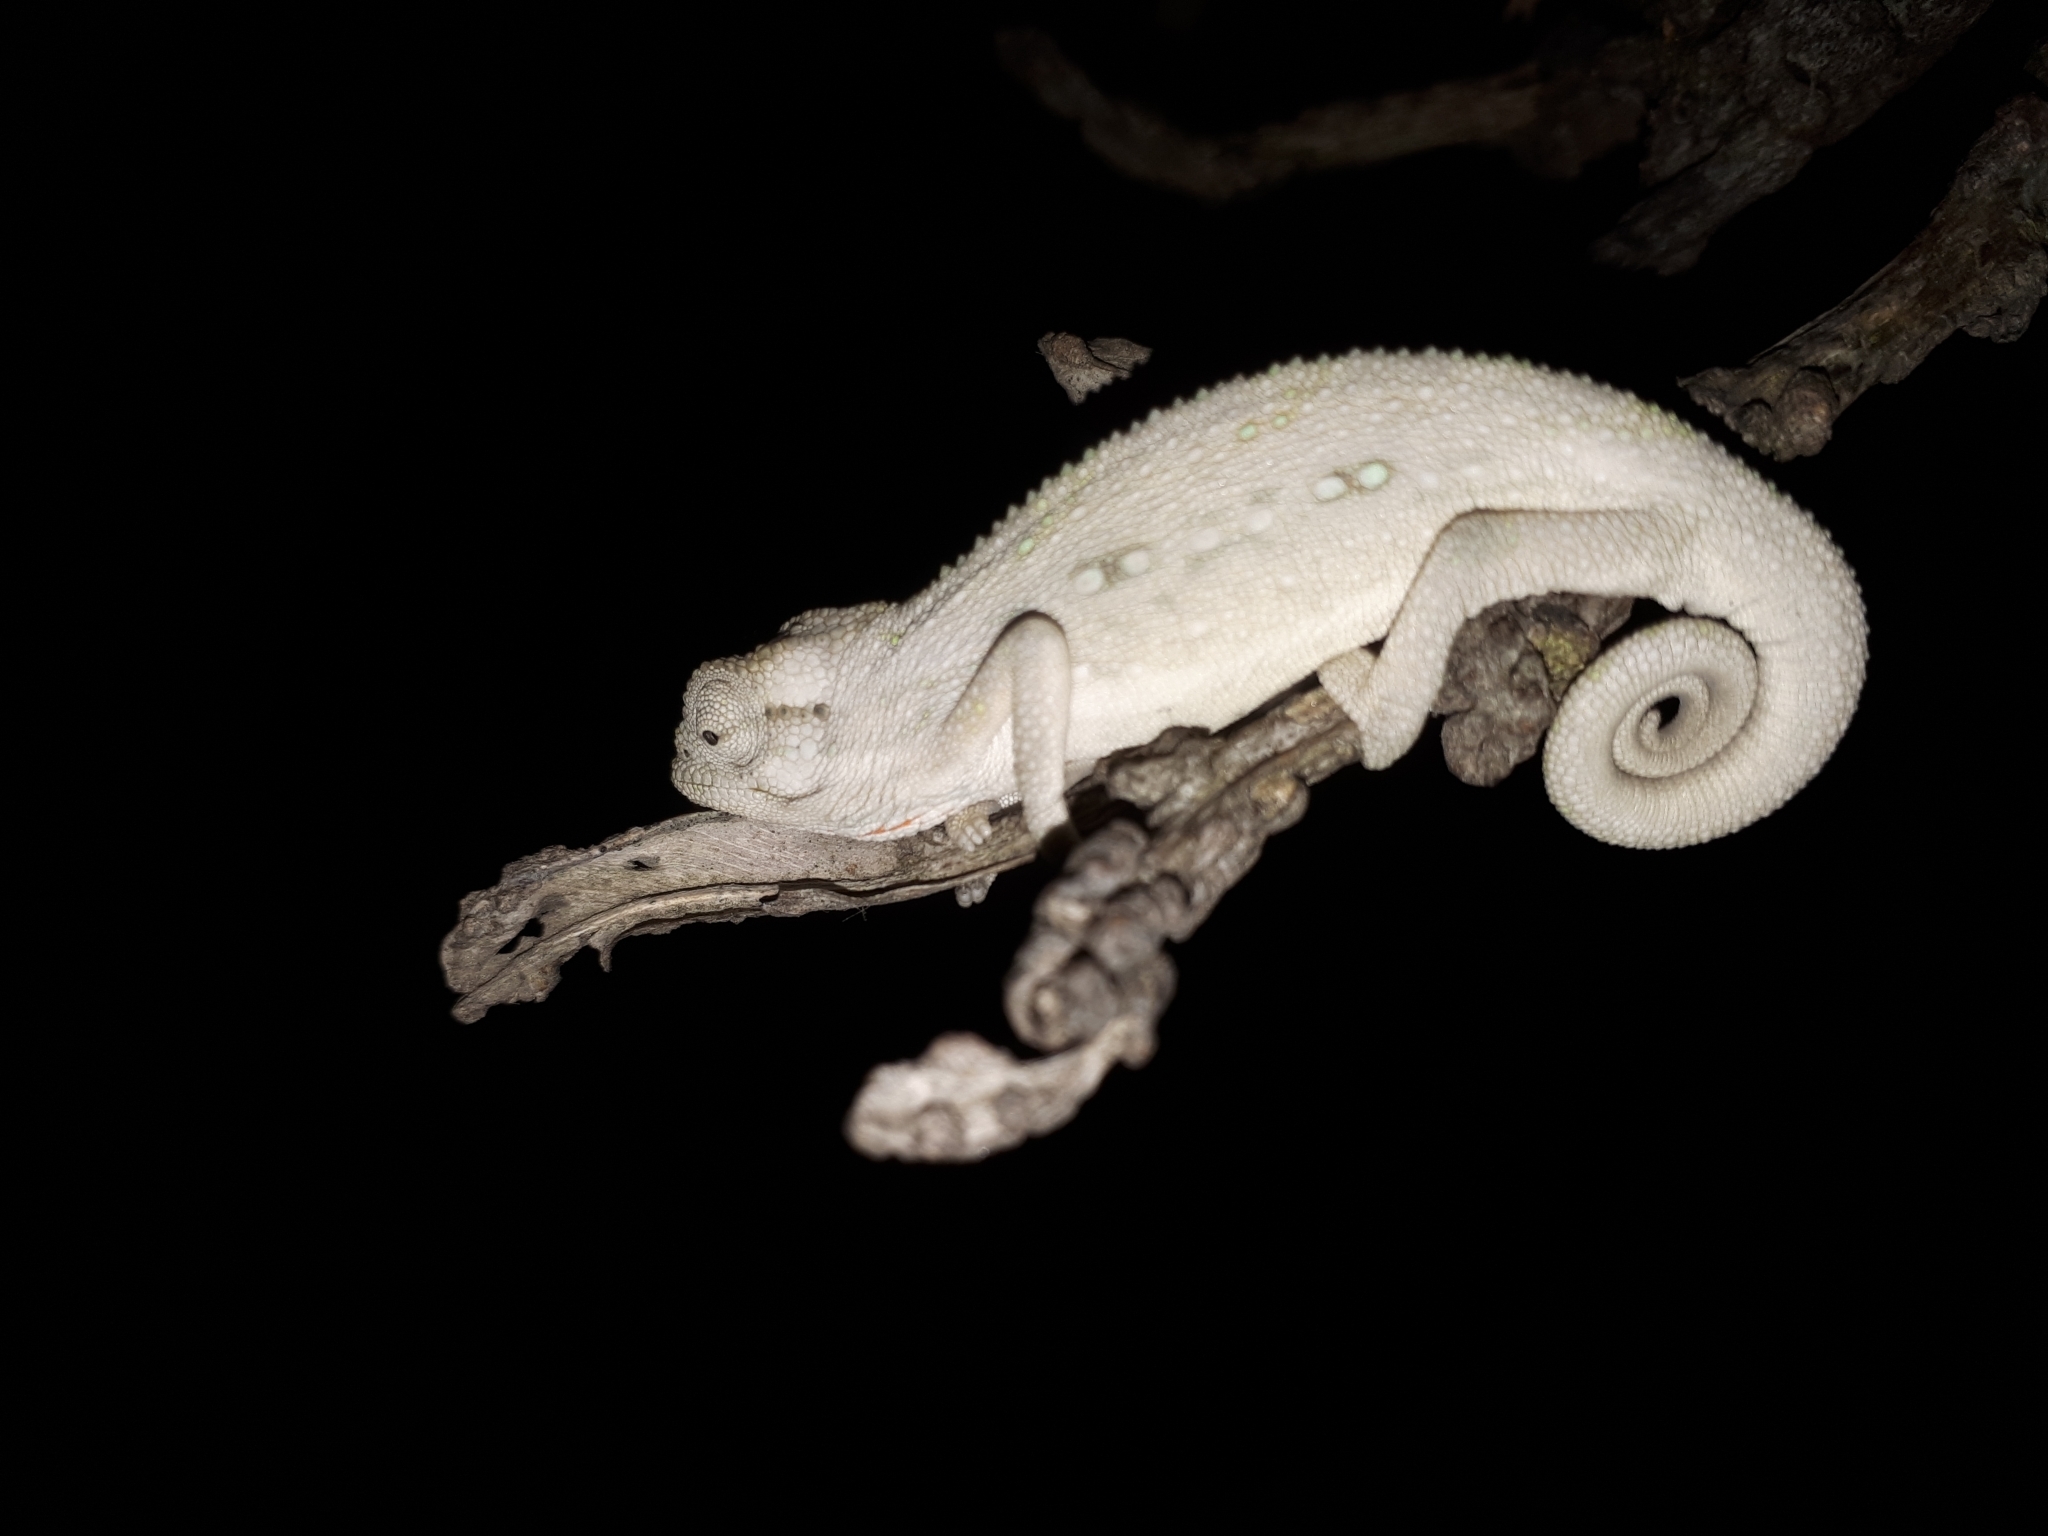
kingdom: Animalia
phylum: Chordata
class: Squamata
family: Chamaeleonidae
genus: Bradypodion
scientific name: Bradypodion pumilum
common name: Cape dwarf chameleon
